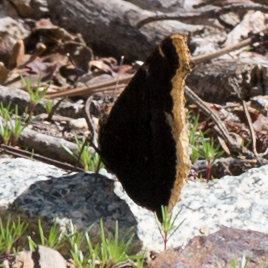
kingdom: Animalia
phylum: Arthropoda
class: Insecta
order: Lepidoptera
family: Nymphalidae
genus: Nymphalis
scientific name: Nymphalis antiopa
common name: Camberwell beauty
